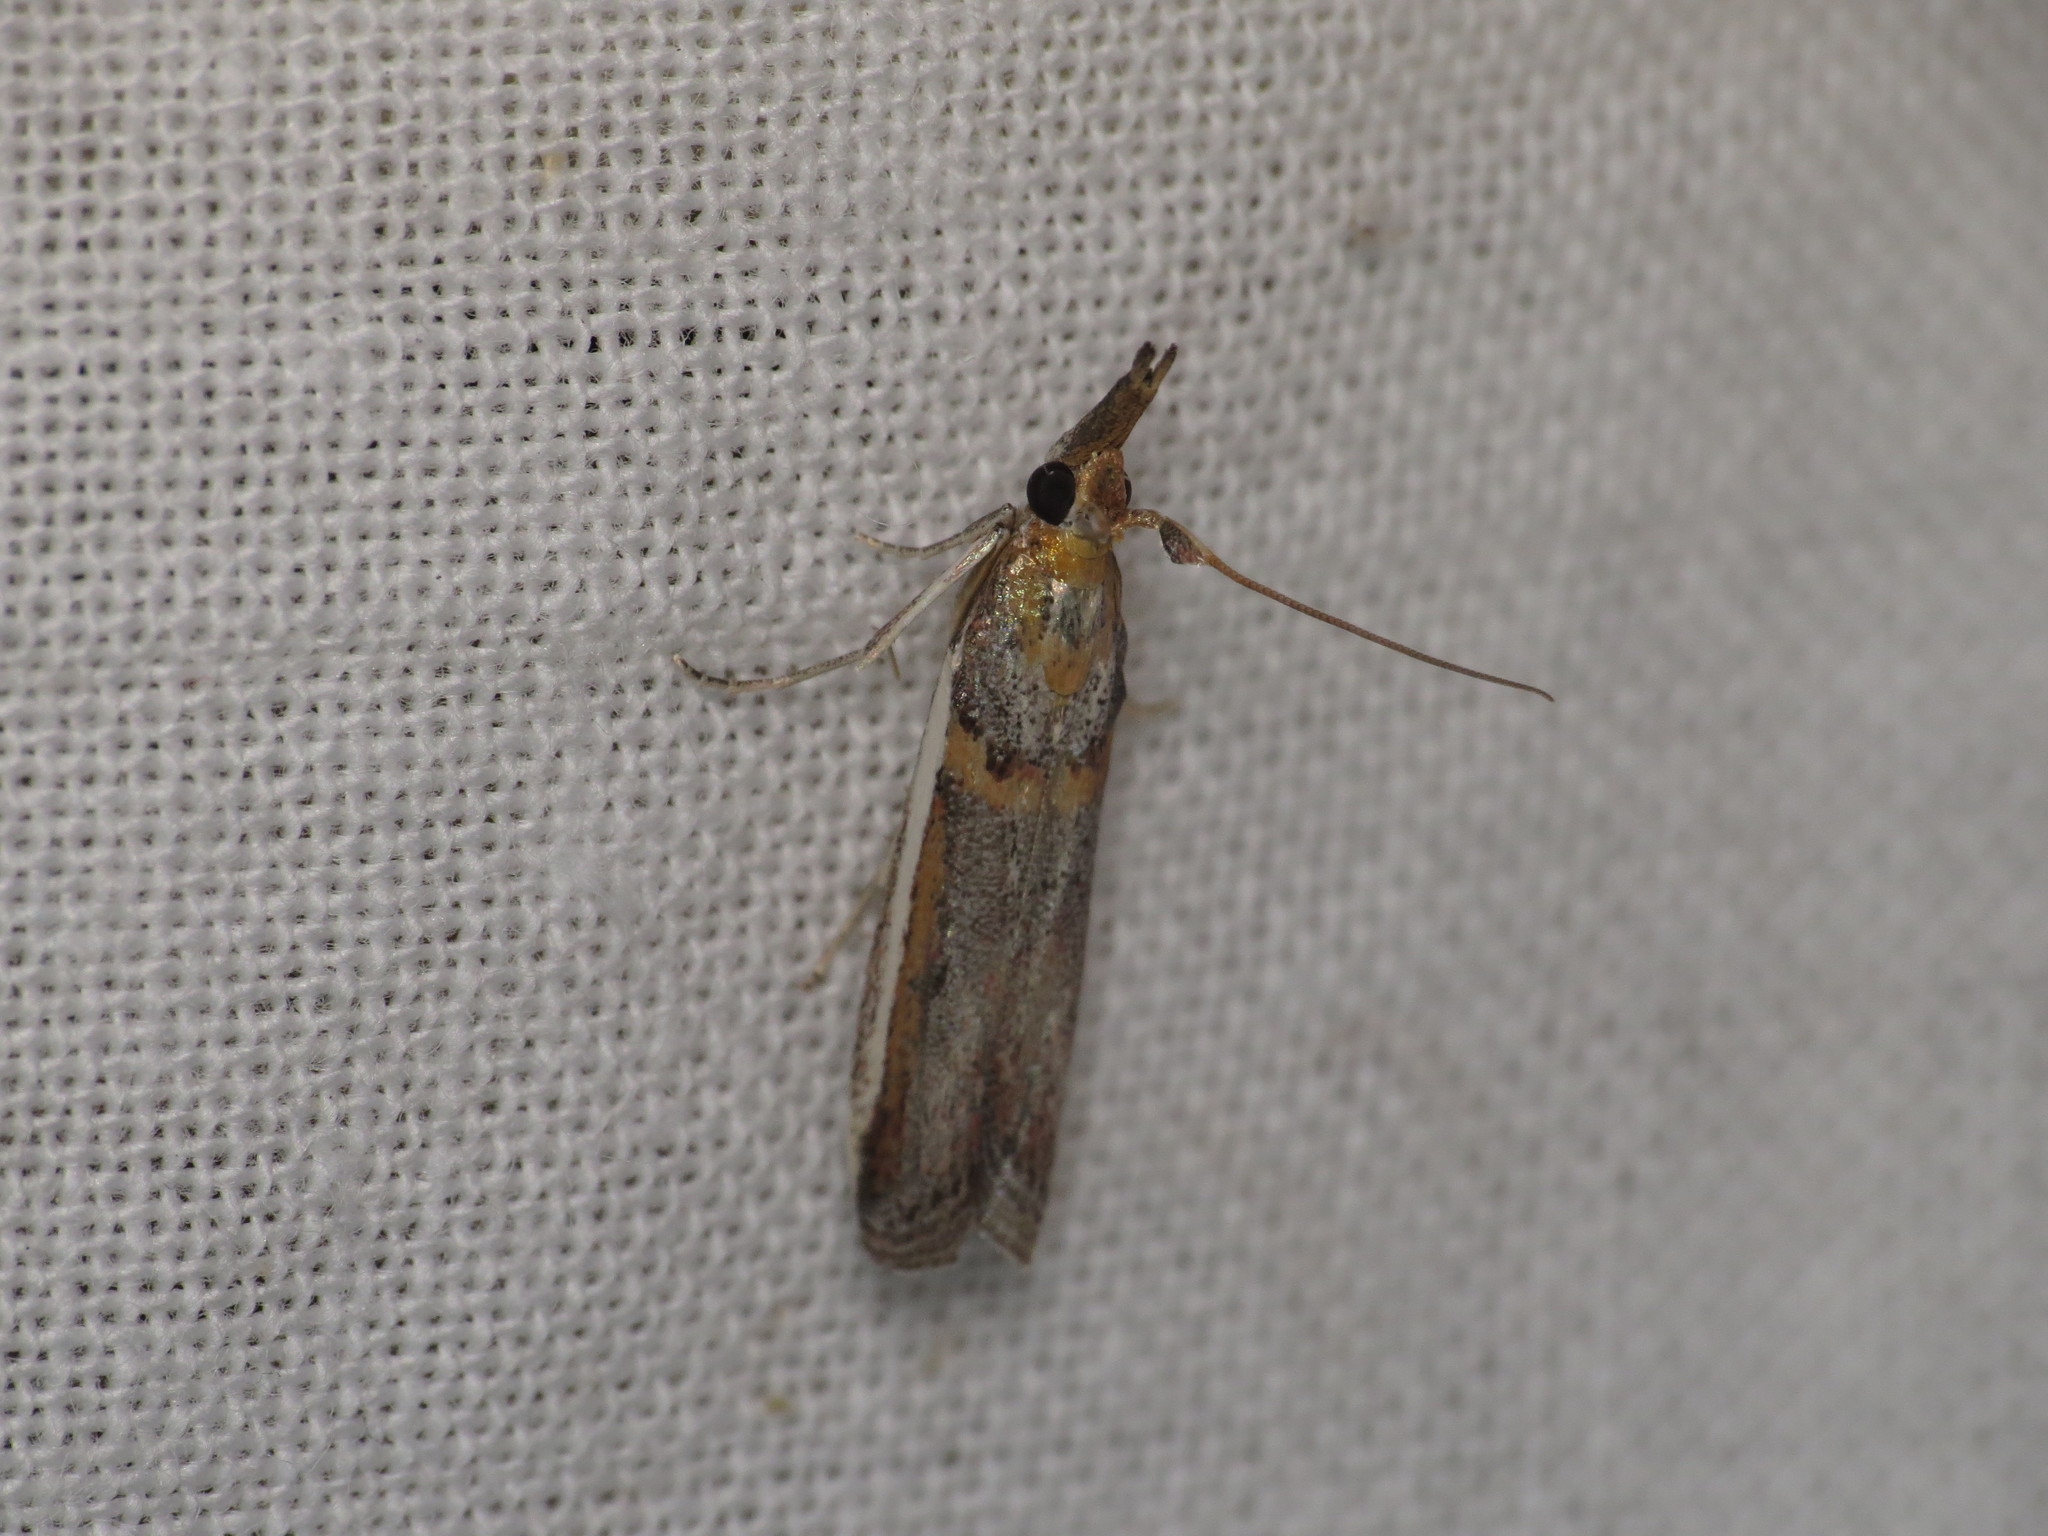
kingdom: Animalia
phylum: Arthropoda
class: Insecta
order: Lepidoptera
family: Pyralidae
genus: Etiella
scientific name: Etiella behrii
